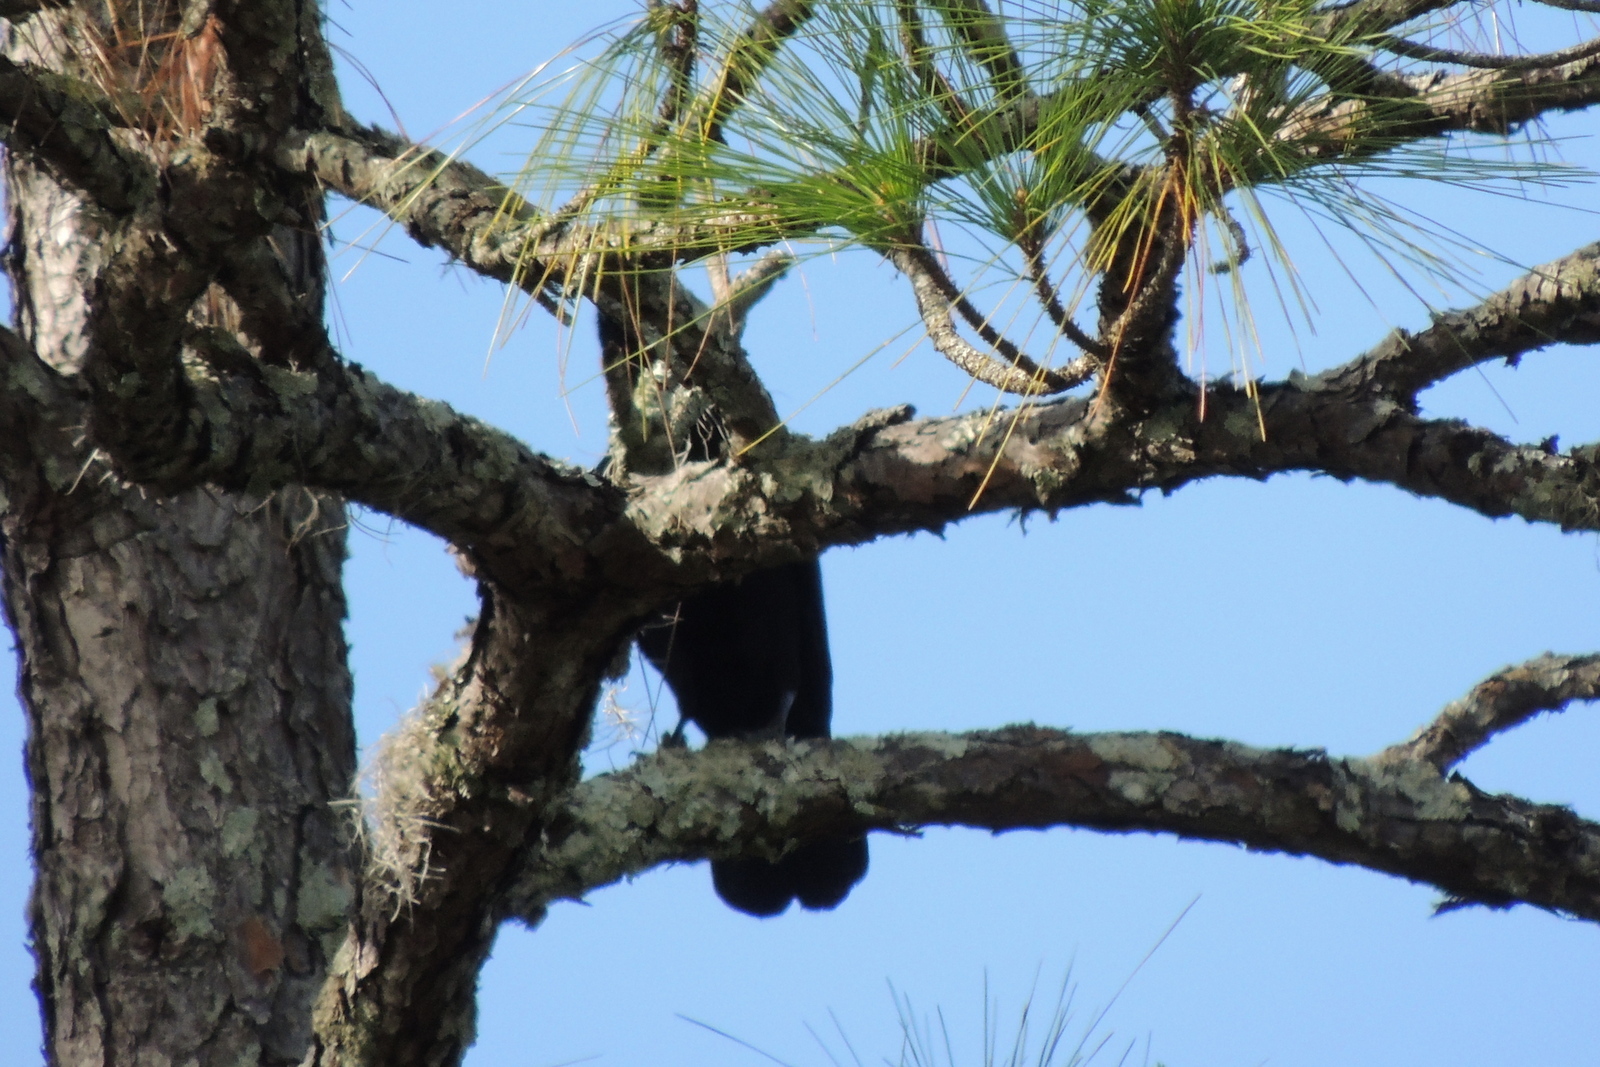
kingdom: Animalia
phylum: Chordata
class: Aves
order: Passeriformes
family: Corvidae
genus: Corvus
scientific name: Corvus
